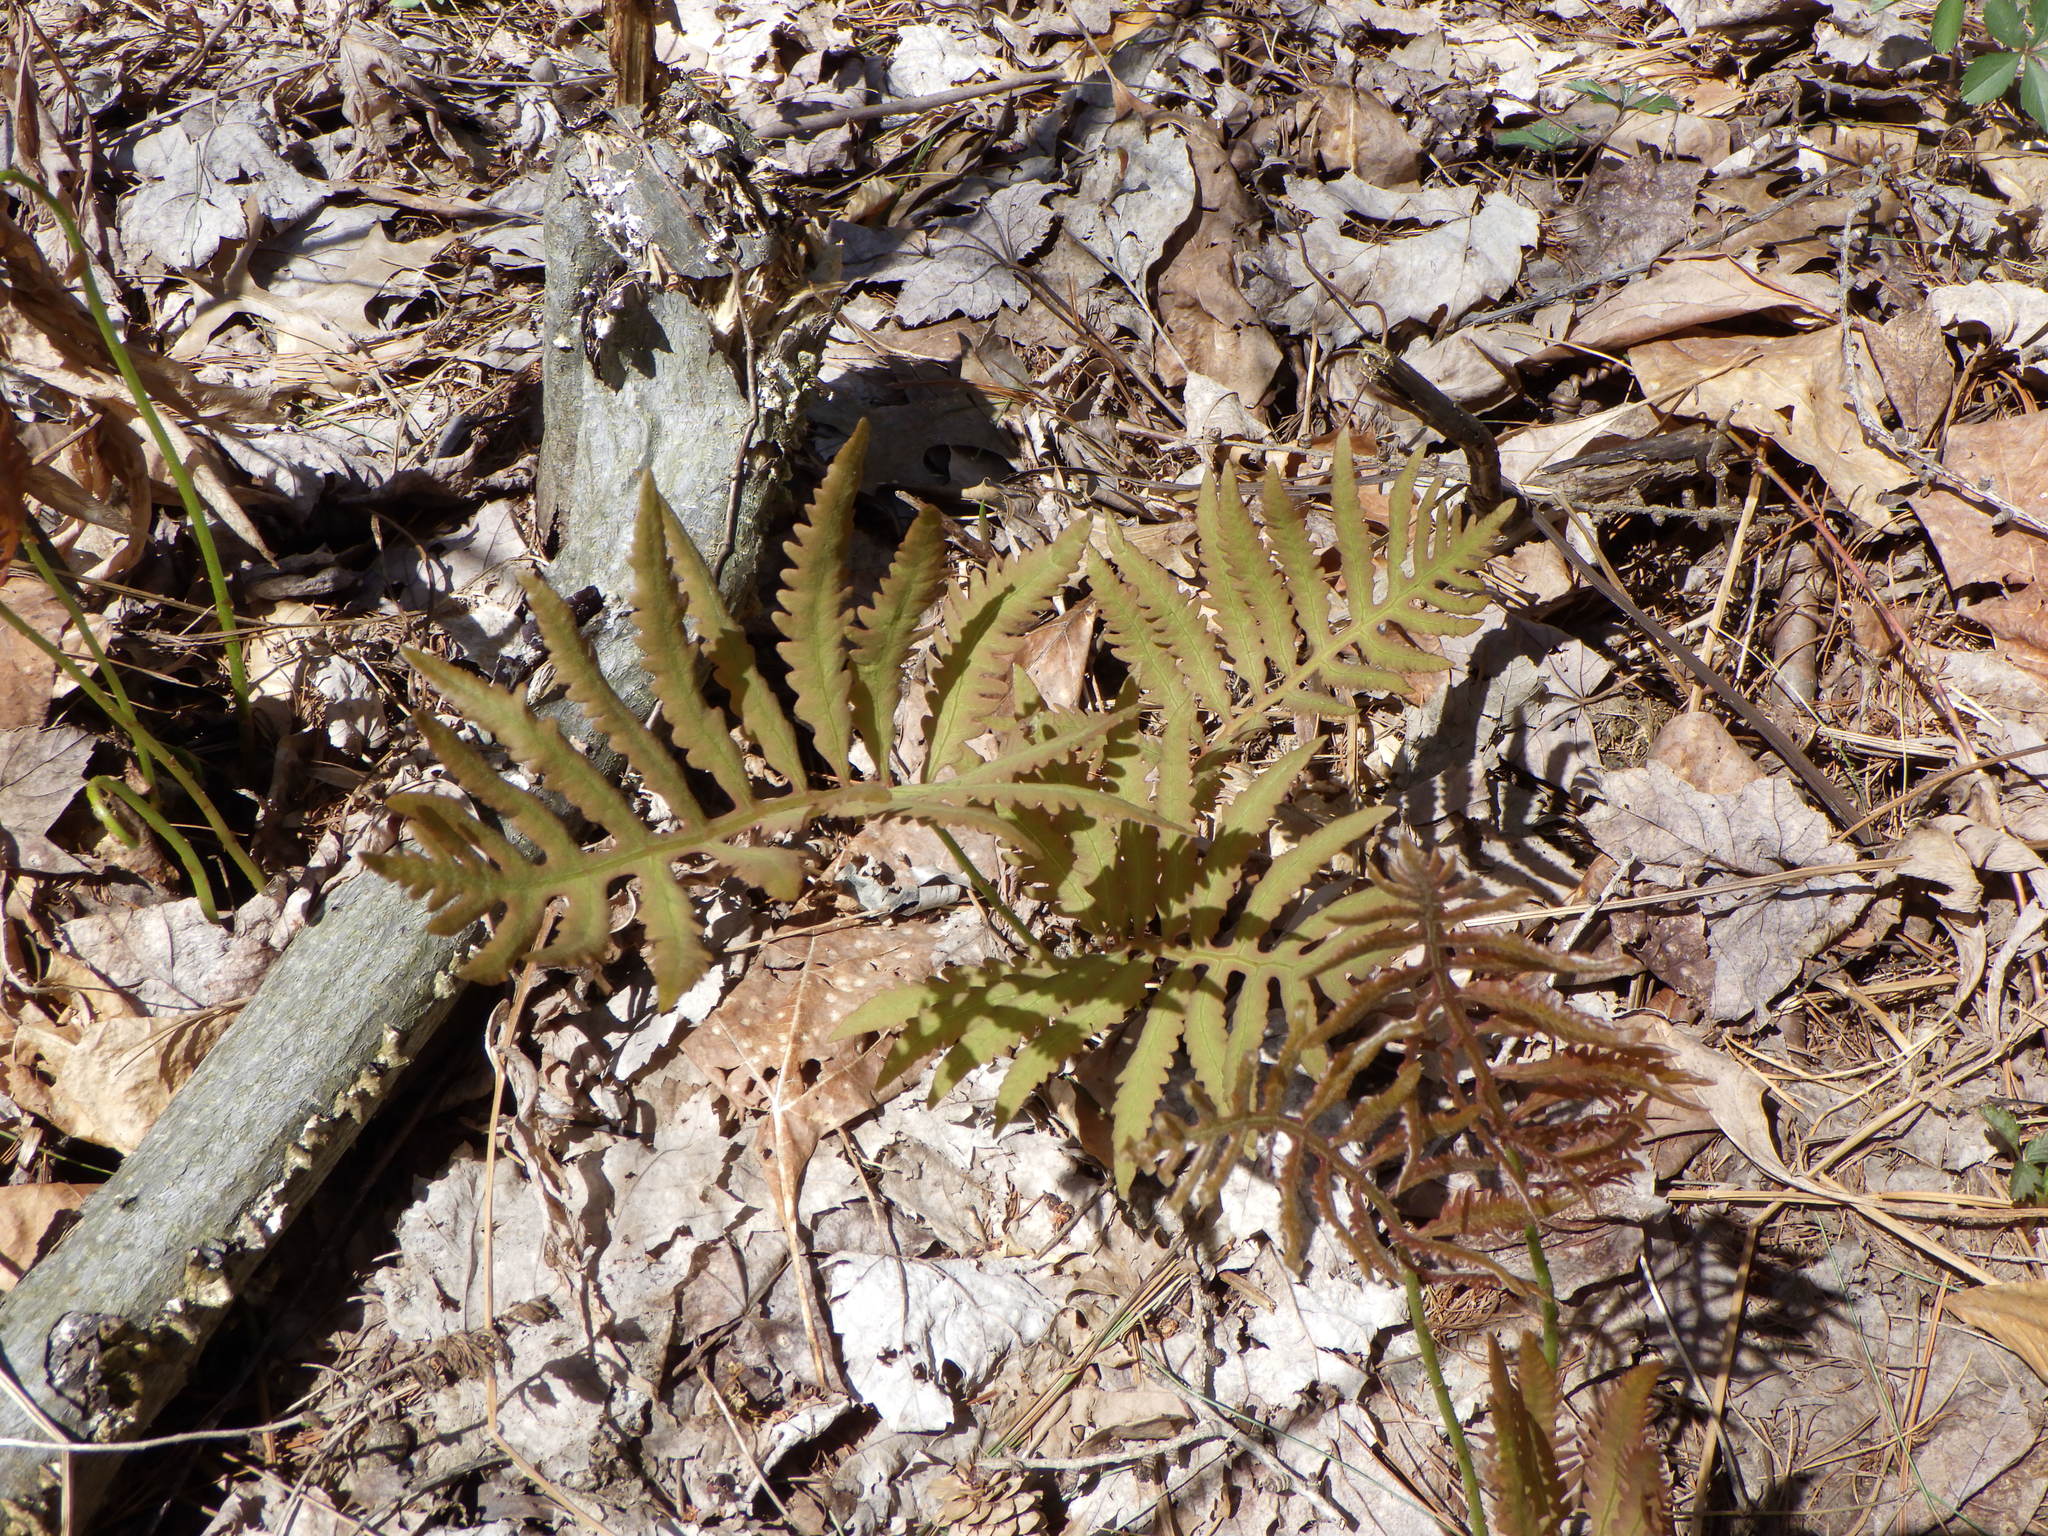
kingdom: Plantae
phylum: Tracheophyta
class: Polypodiopsida
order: Polypodiales
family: Onocleaceae
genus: Onoclea
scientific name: Onoclea sensibilis
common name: Sensitive fern
